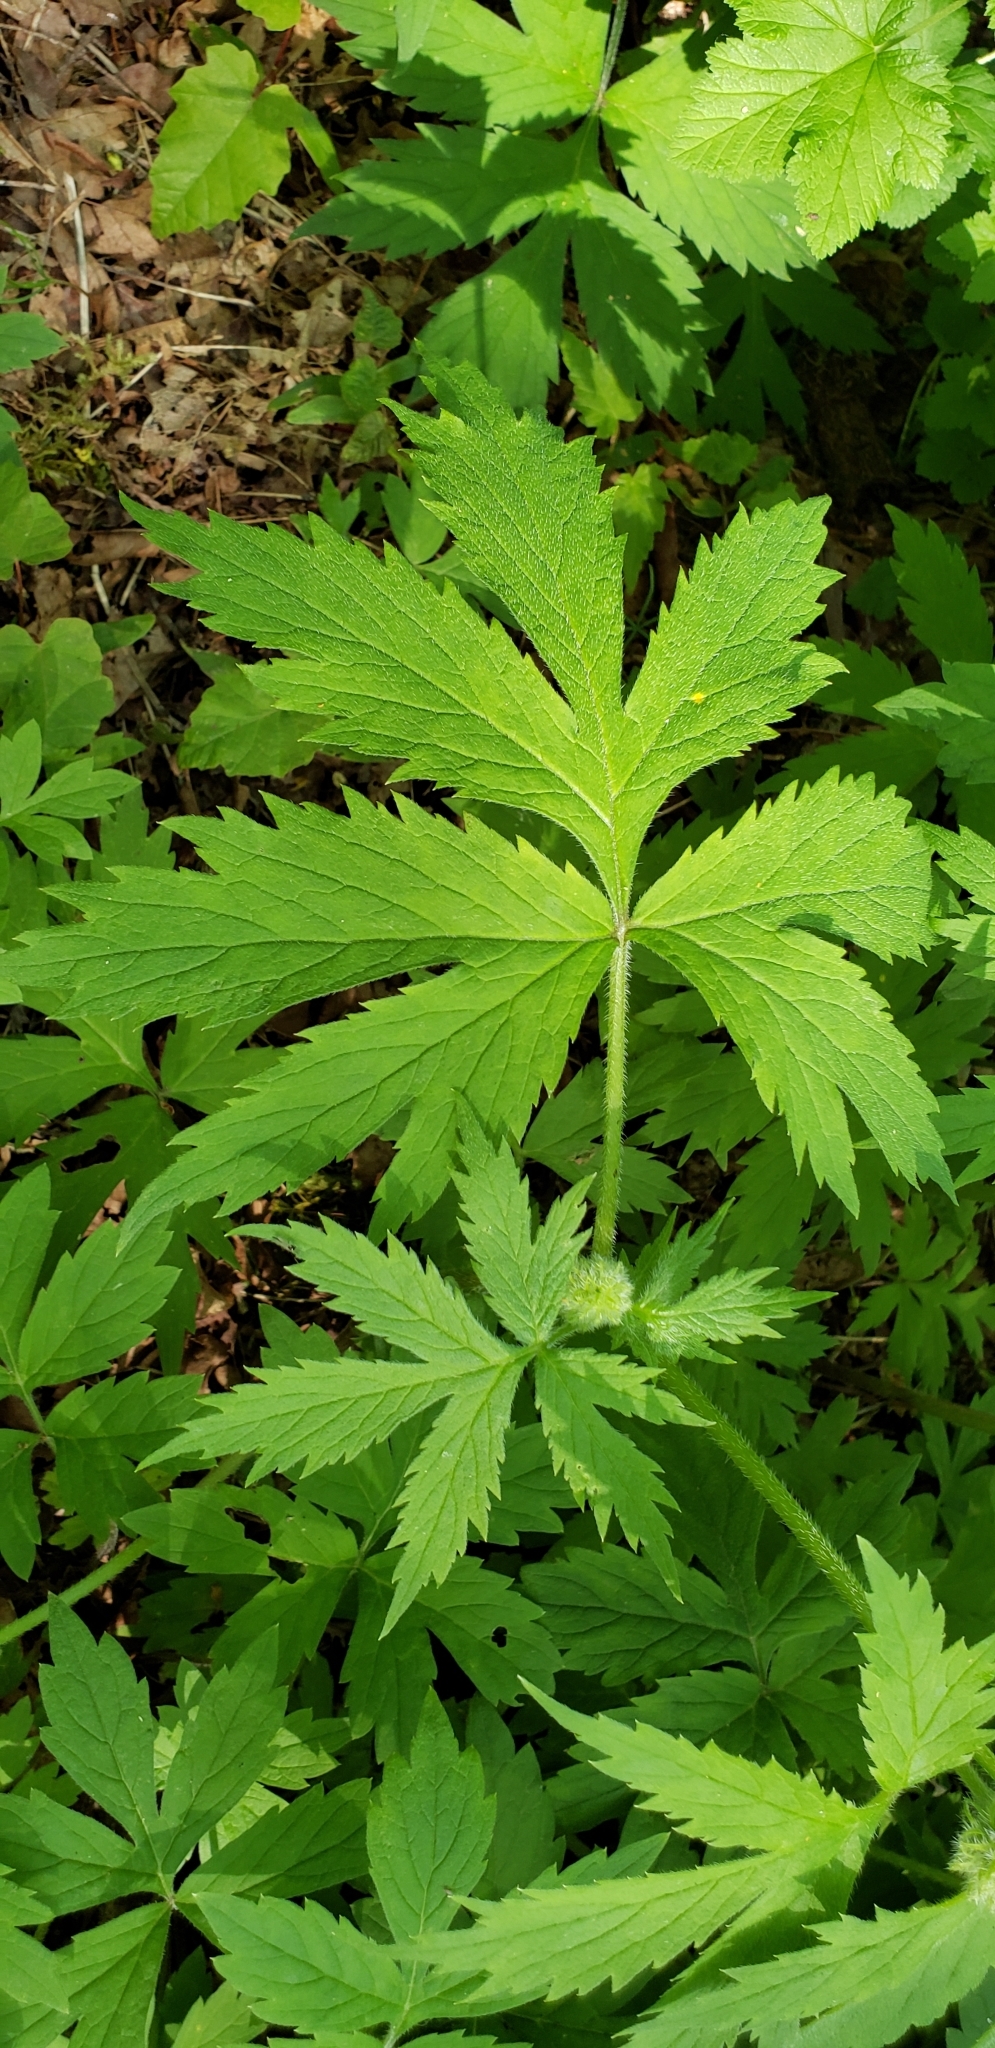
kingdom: Plantae
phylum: Tracheophyta
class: Magnoliopsida
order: Boraginales
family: Hydrophyllaceae
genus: Hydrophyllum
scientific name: Hydrophyllum tenuipes
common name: Pacific waterleaf
